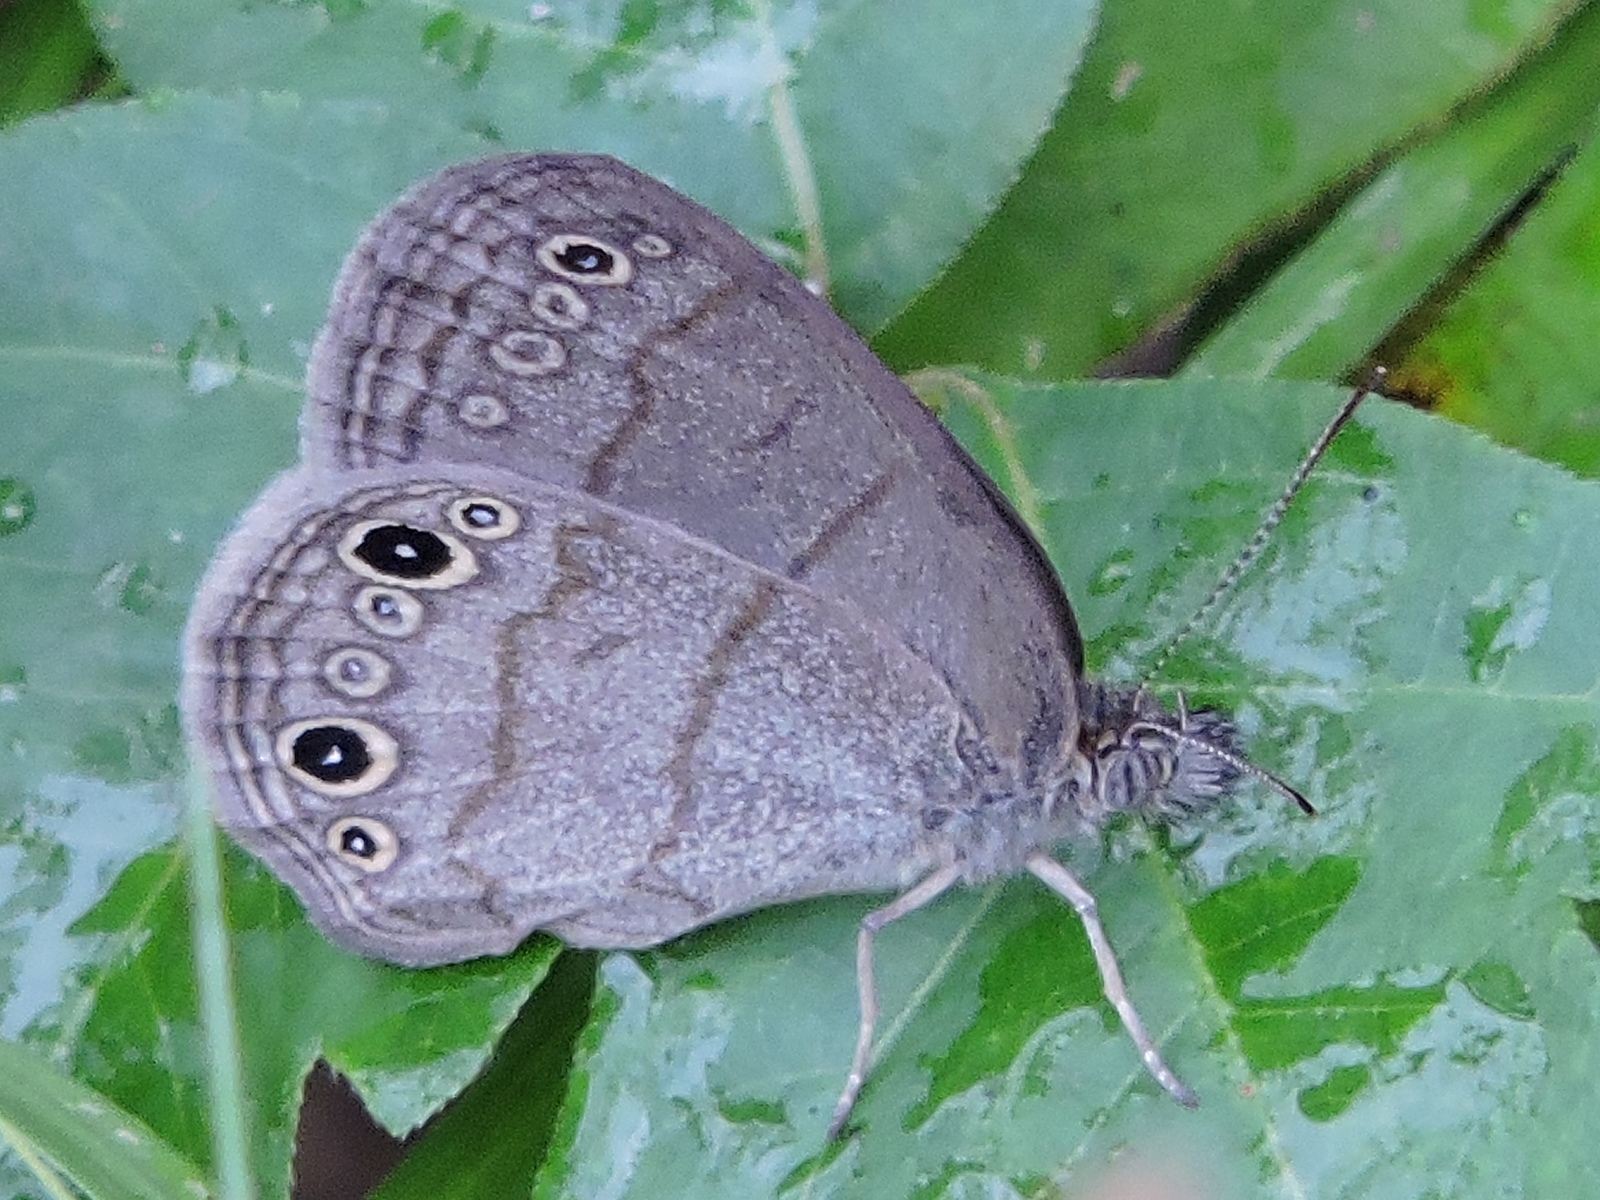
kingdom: Animalia
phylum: Arthropoda
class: Insecta
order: Lepidoptera
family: Nymphalidae
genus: Hermeuptychia
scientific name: Hermeuptychia hermes
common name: Hermes satyr
